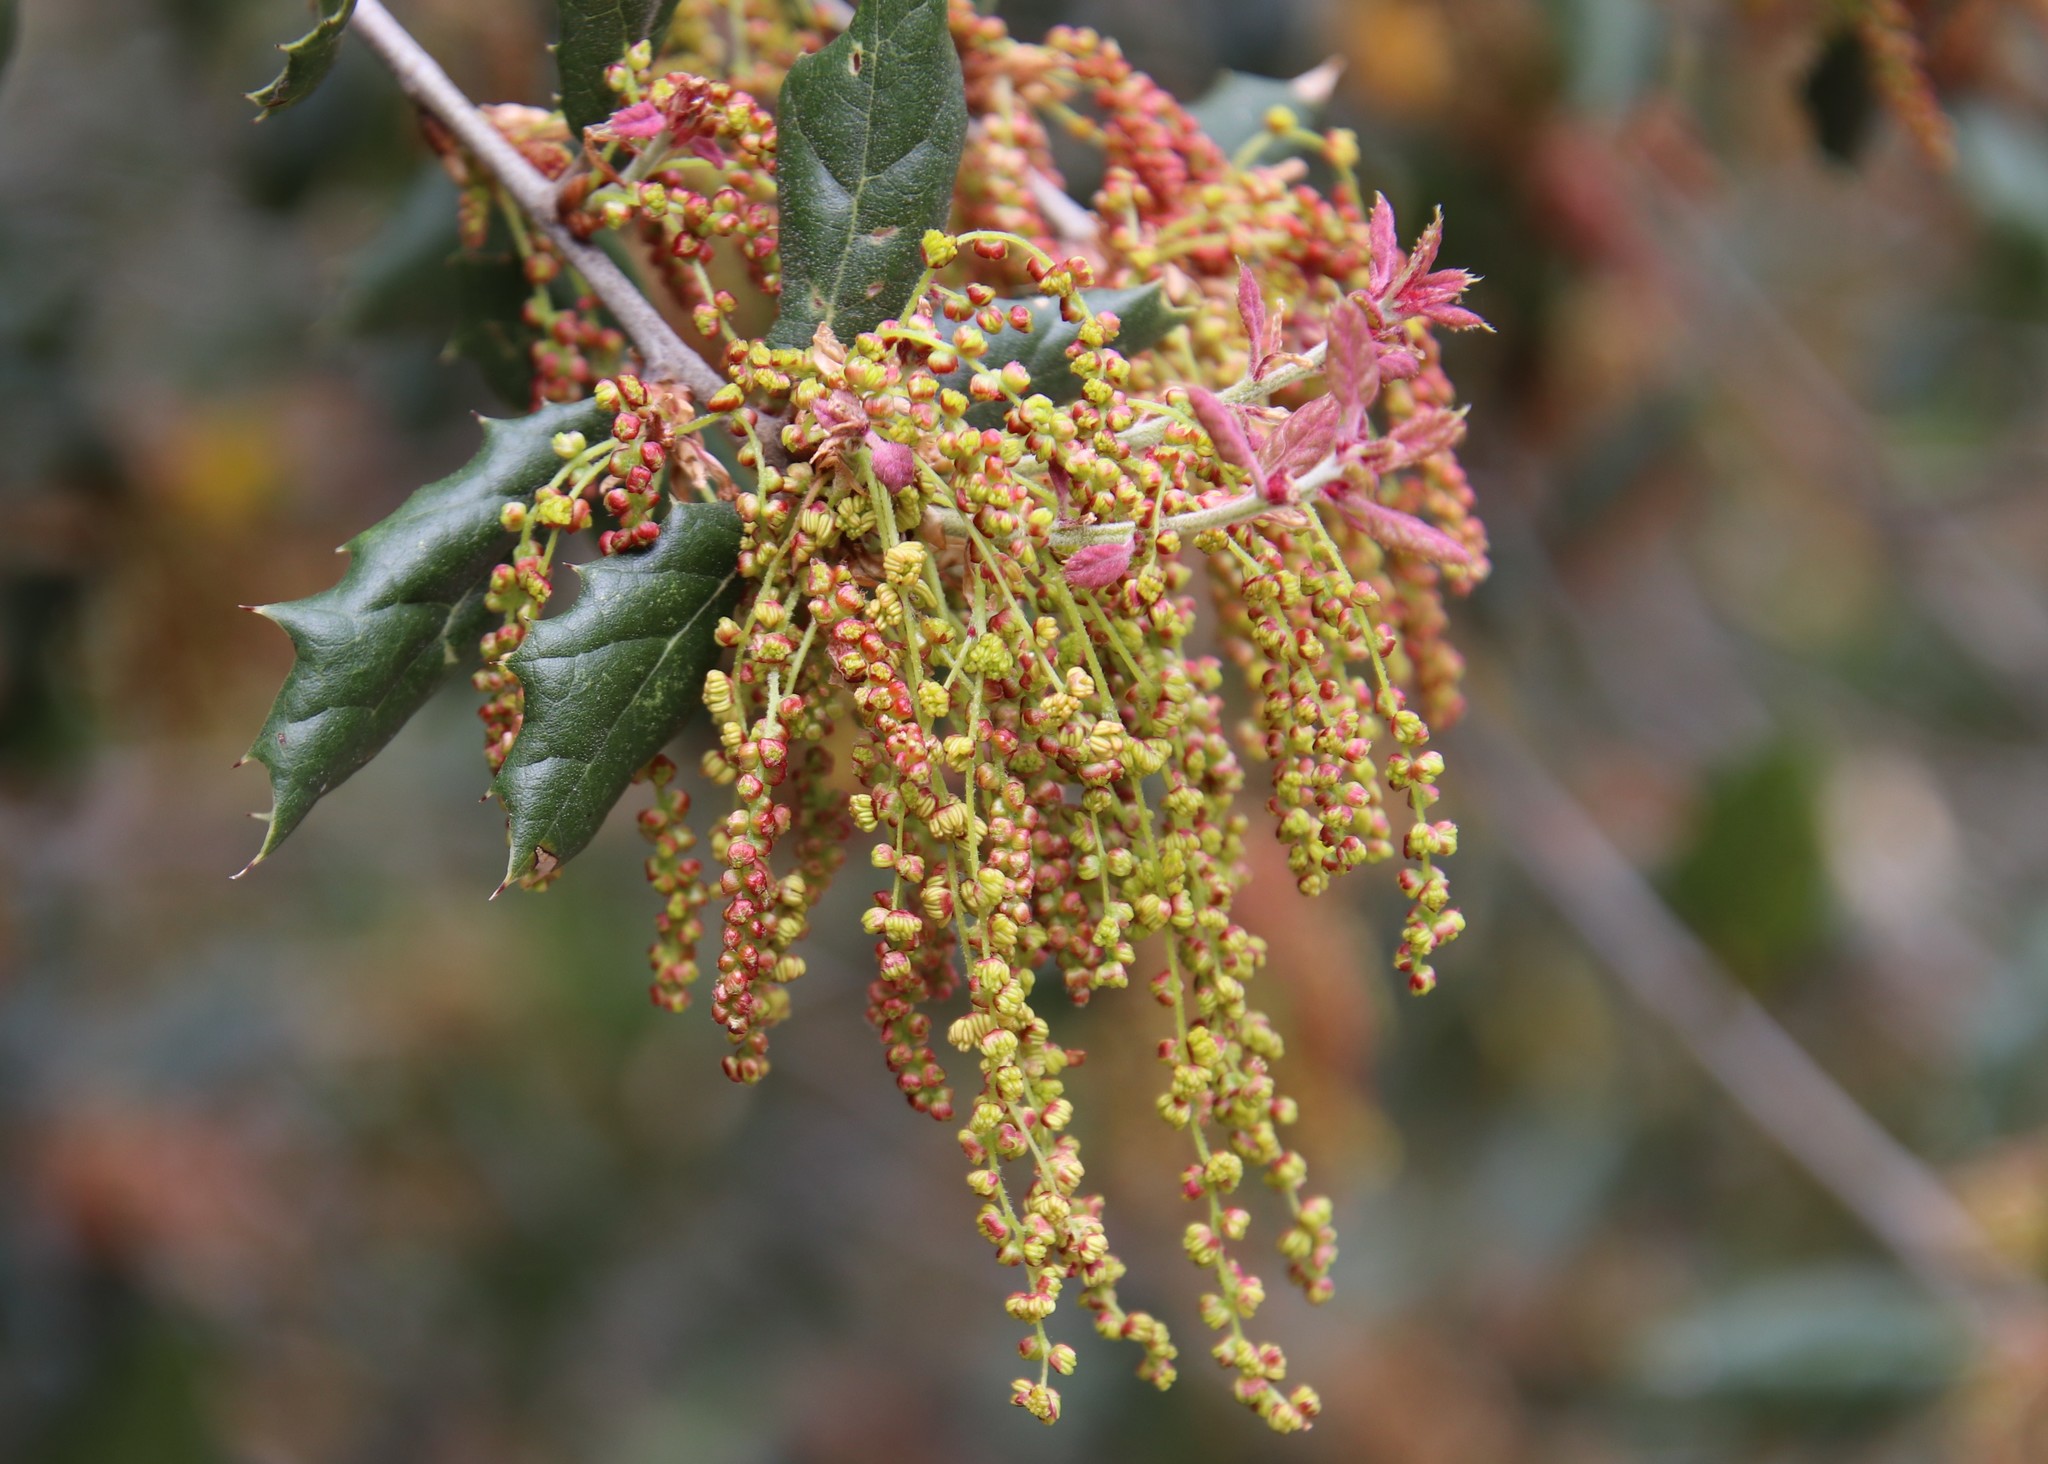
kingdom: Plantae
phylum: Tracheophyta
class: Magnoliopsida
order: Fagales
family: Fagaceae
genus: Quercus
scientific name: Quercus agrifolia
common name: California live oak
